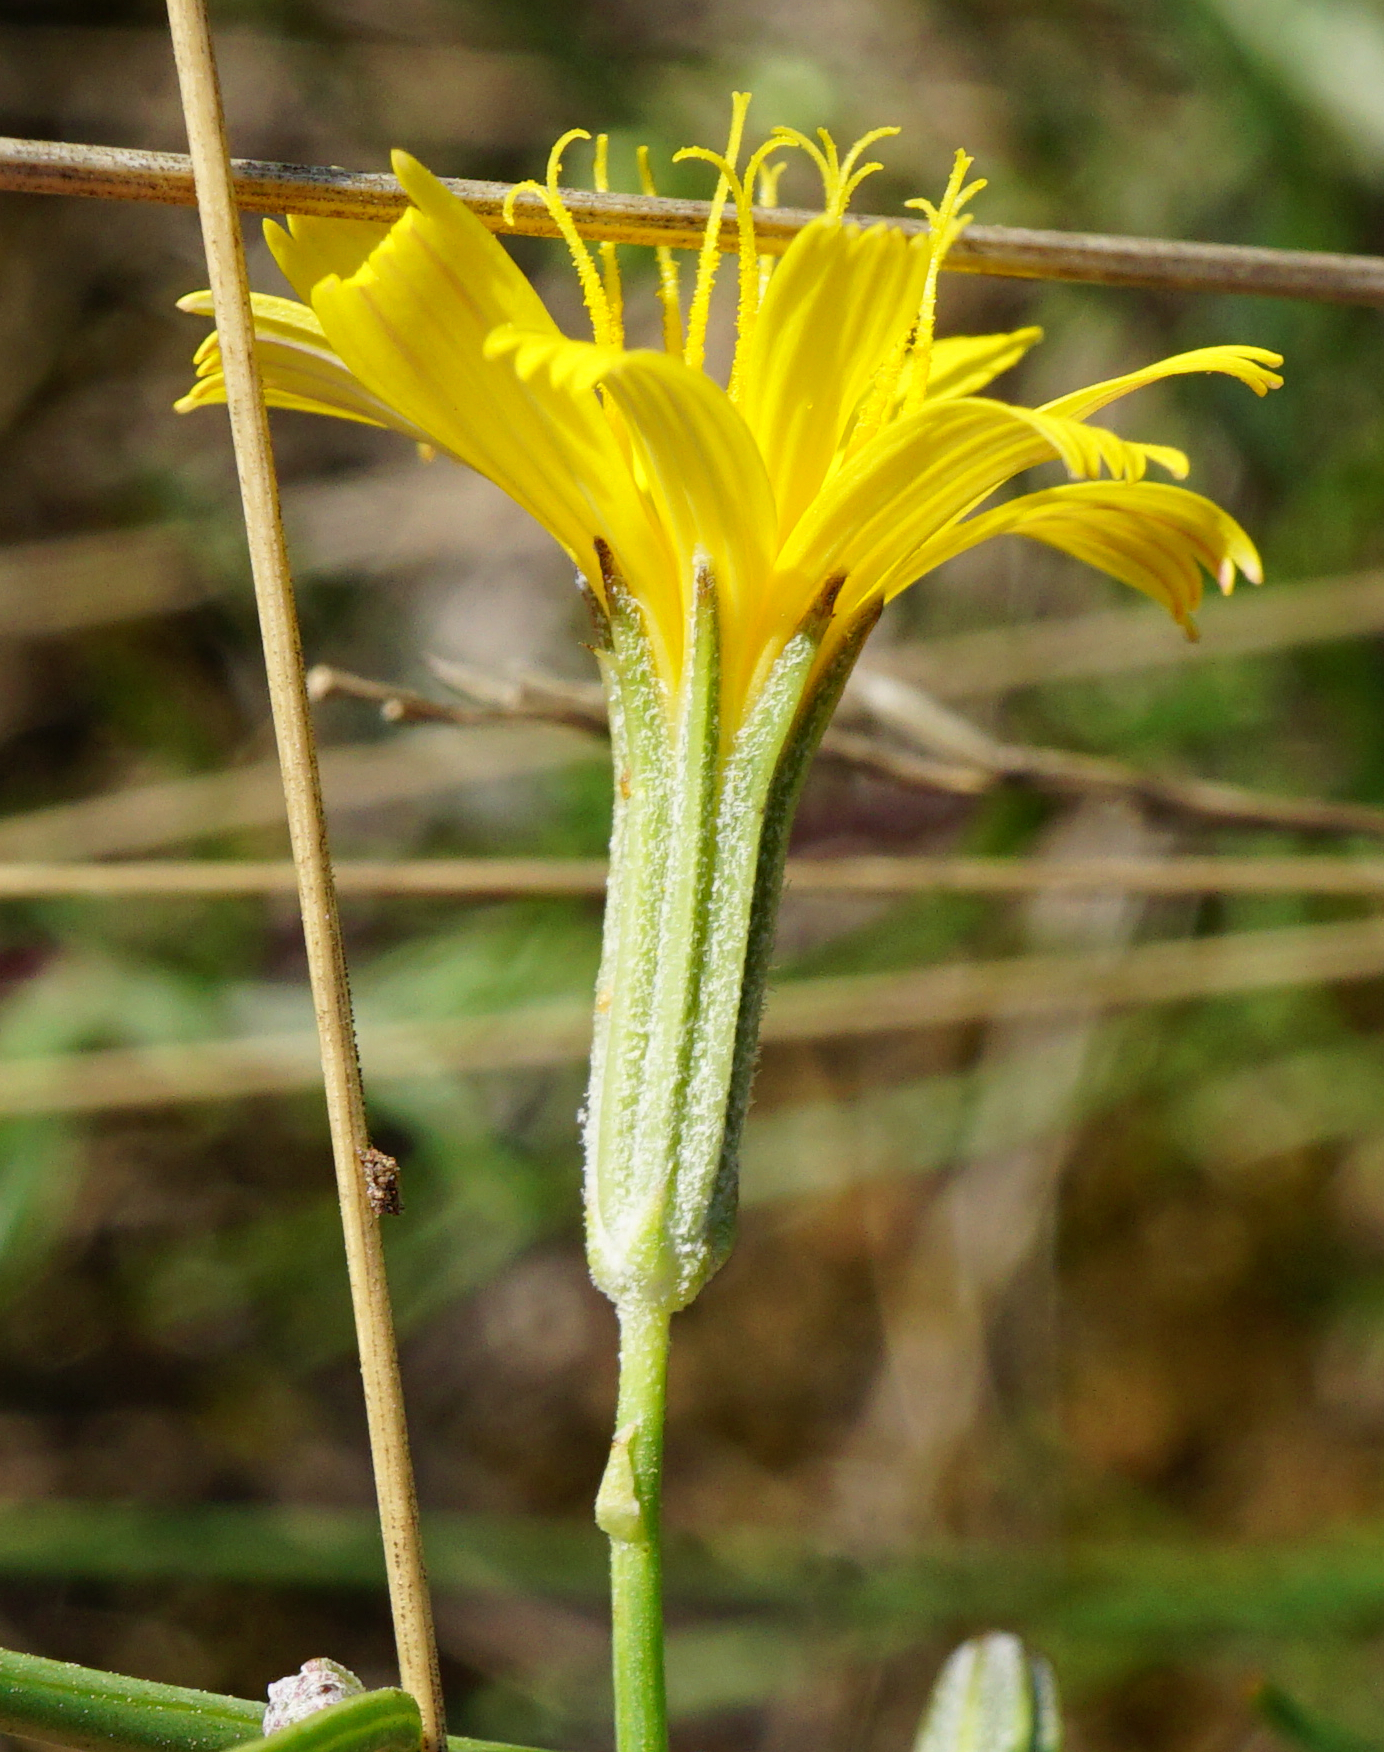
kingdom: Plantae
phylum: Tracheophyta
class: Magnoliopsida
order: Asterales
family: Asteraceae
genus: Chondrilla
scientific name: Chondrilla juncea
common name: Skeleton weed
